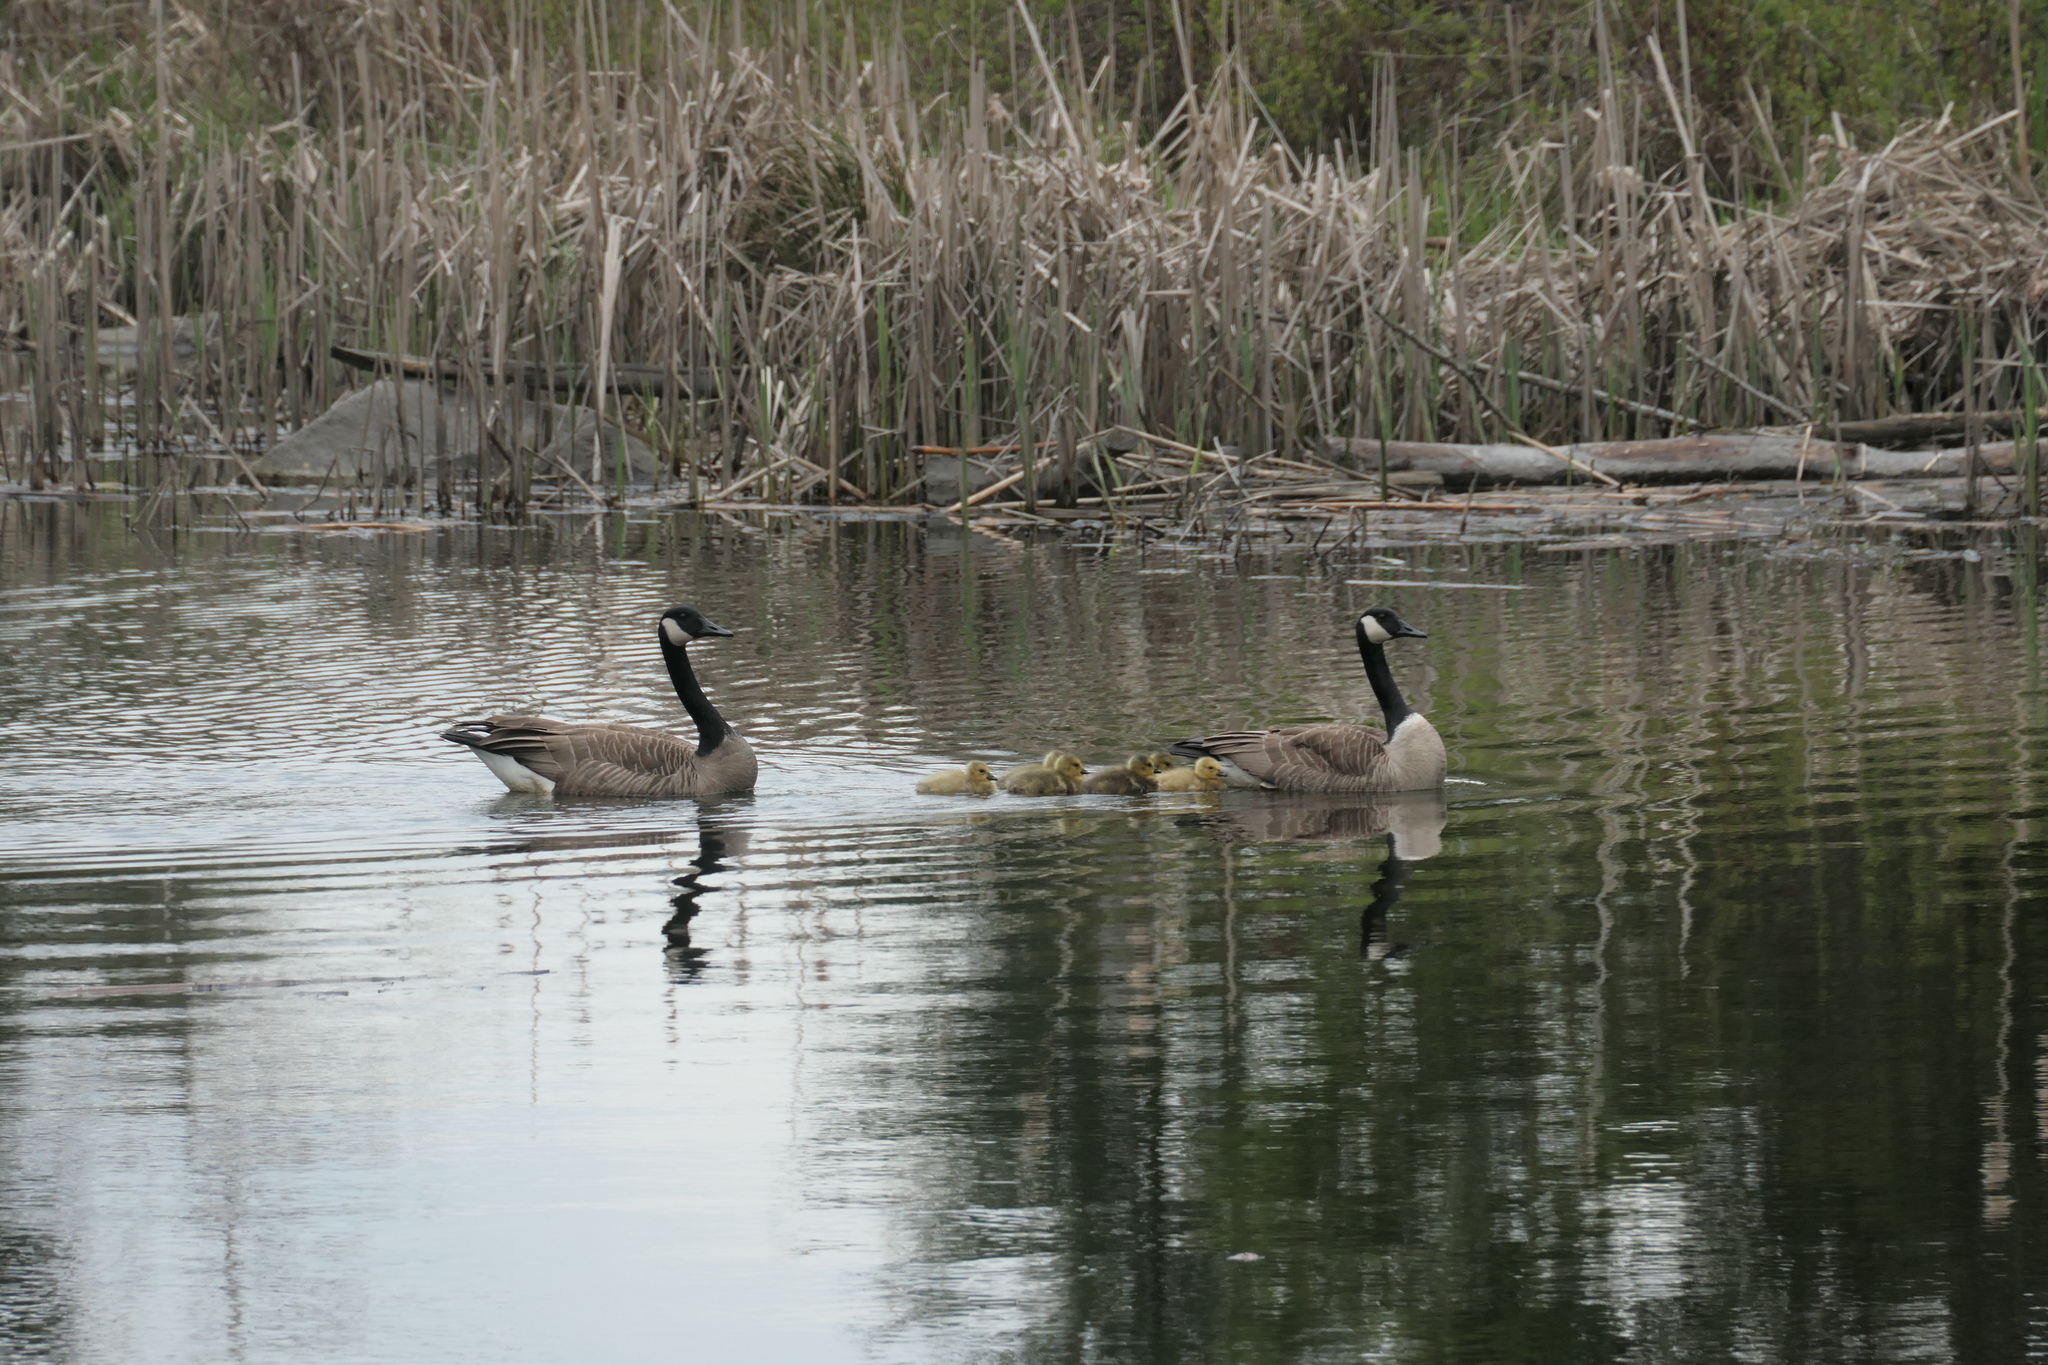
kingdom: Animalia
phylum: Chordata
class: Aves
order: Anseriformes
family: Anatidae
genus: Branta
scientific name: Branta canadensis
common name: Canada goose
